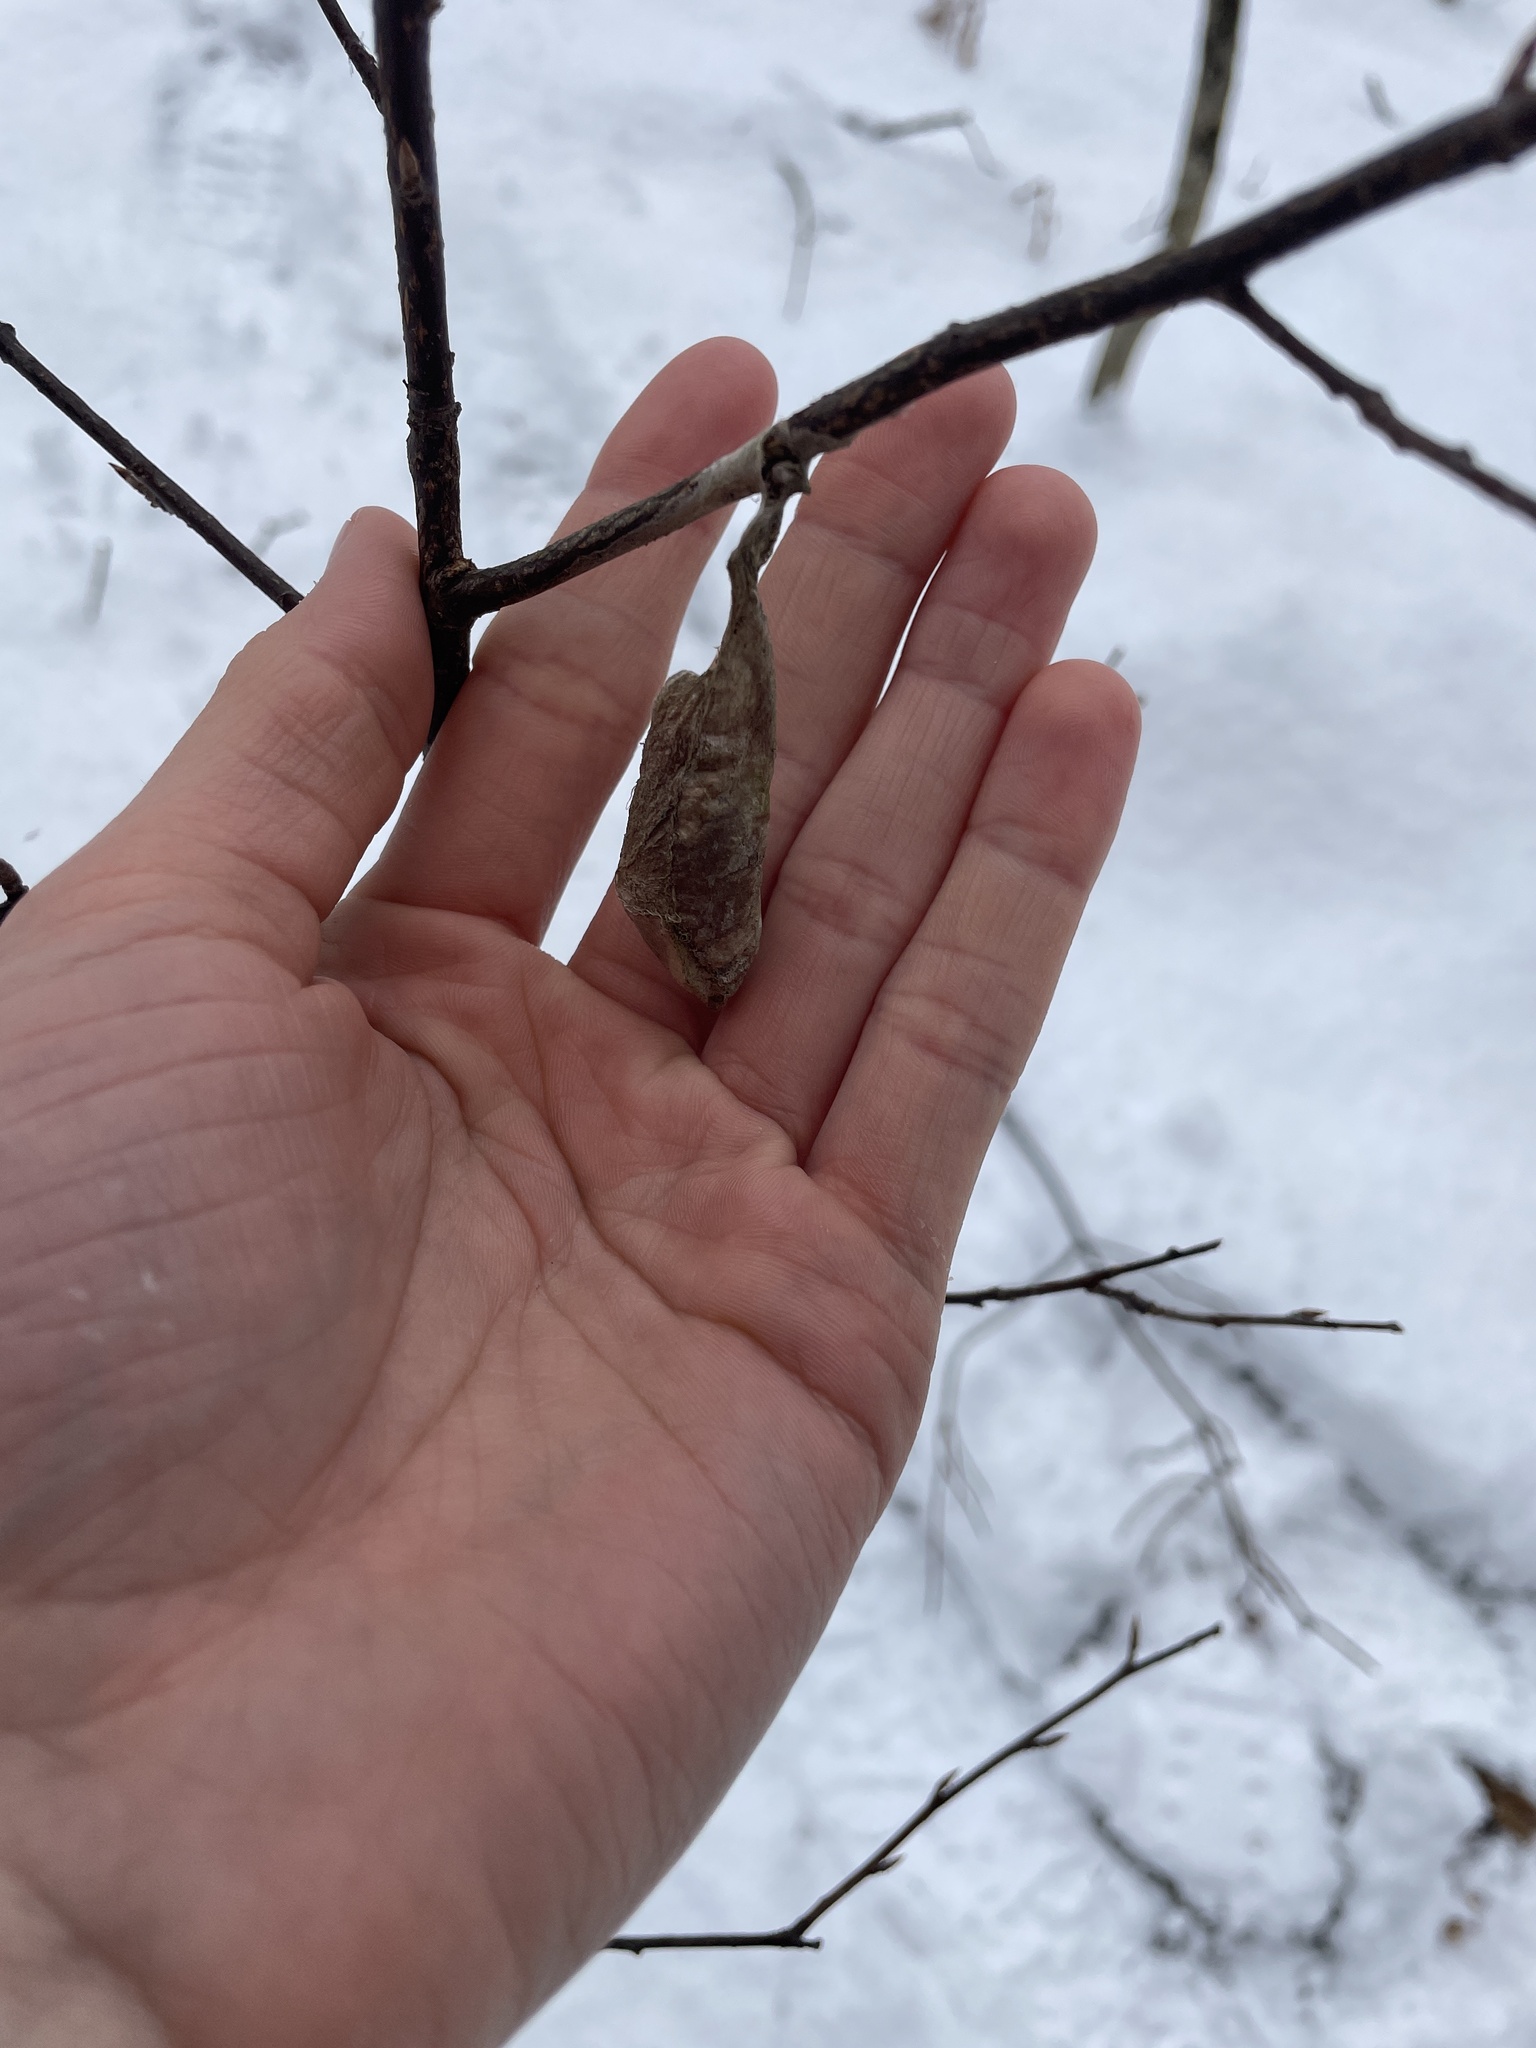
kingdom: Animalia
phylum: Arthropoda
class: Insecta
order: Lepidoptera
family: Saturniidae
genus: Callosamia
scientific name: Callosamia promethea
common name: Promethea silkmoth
